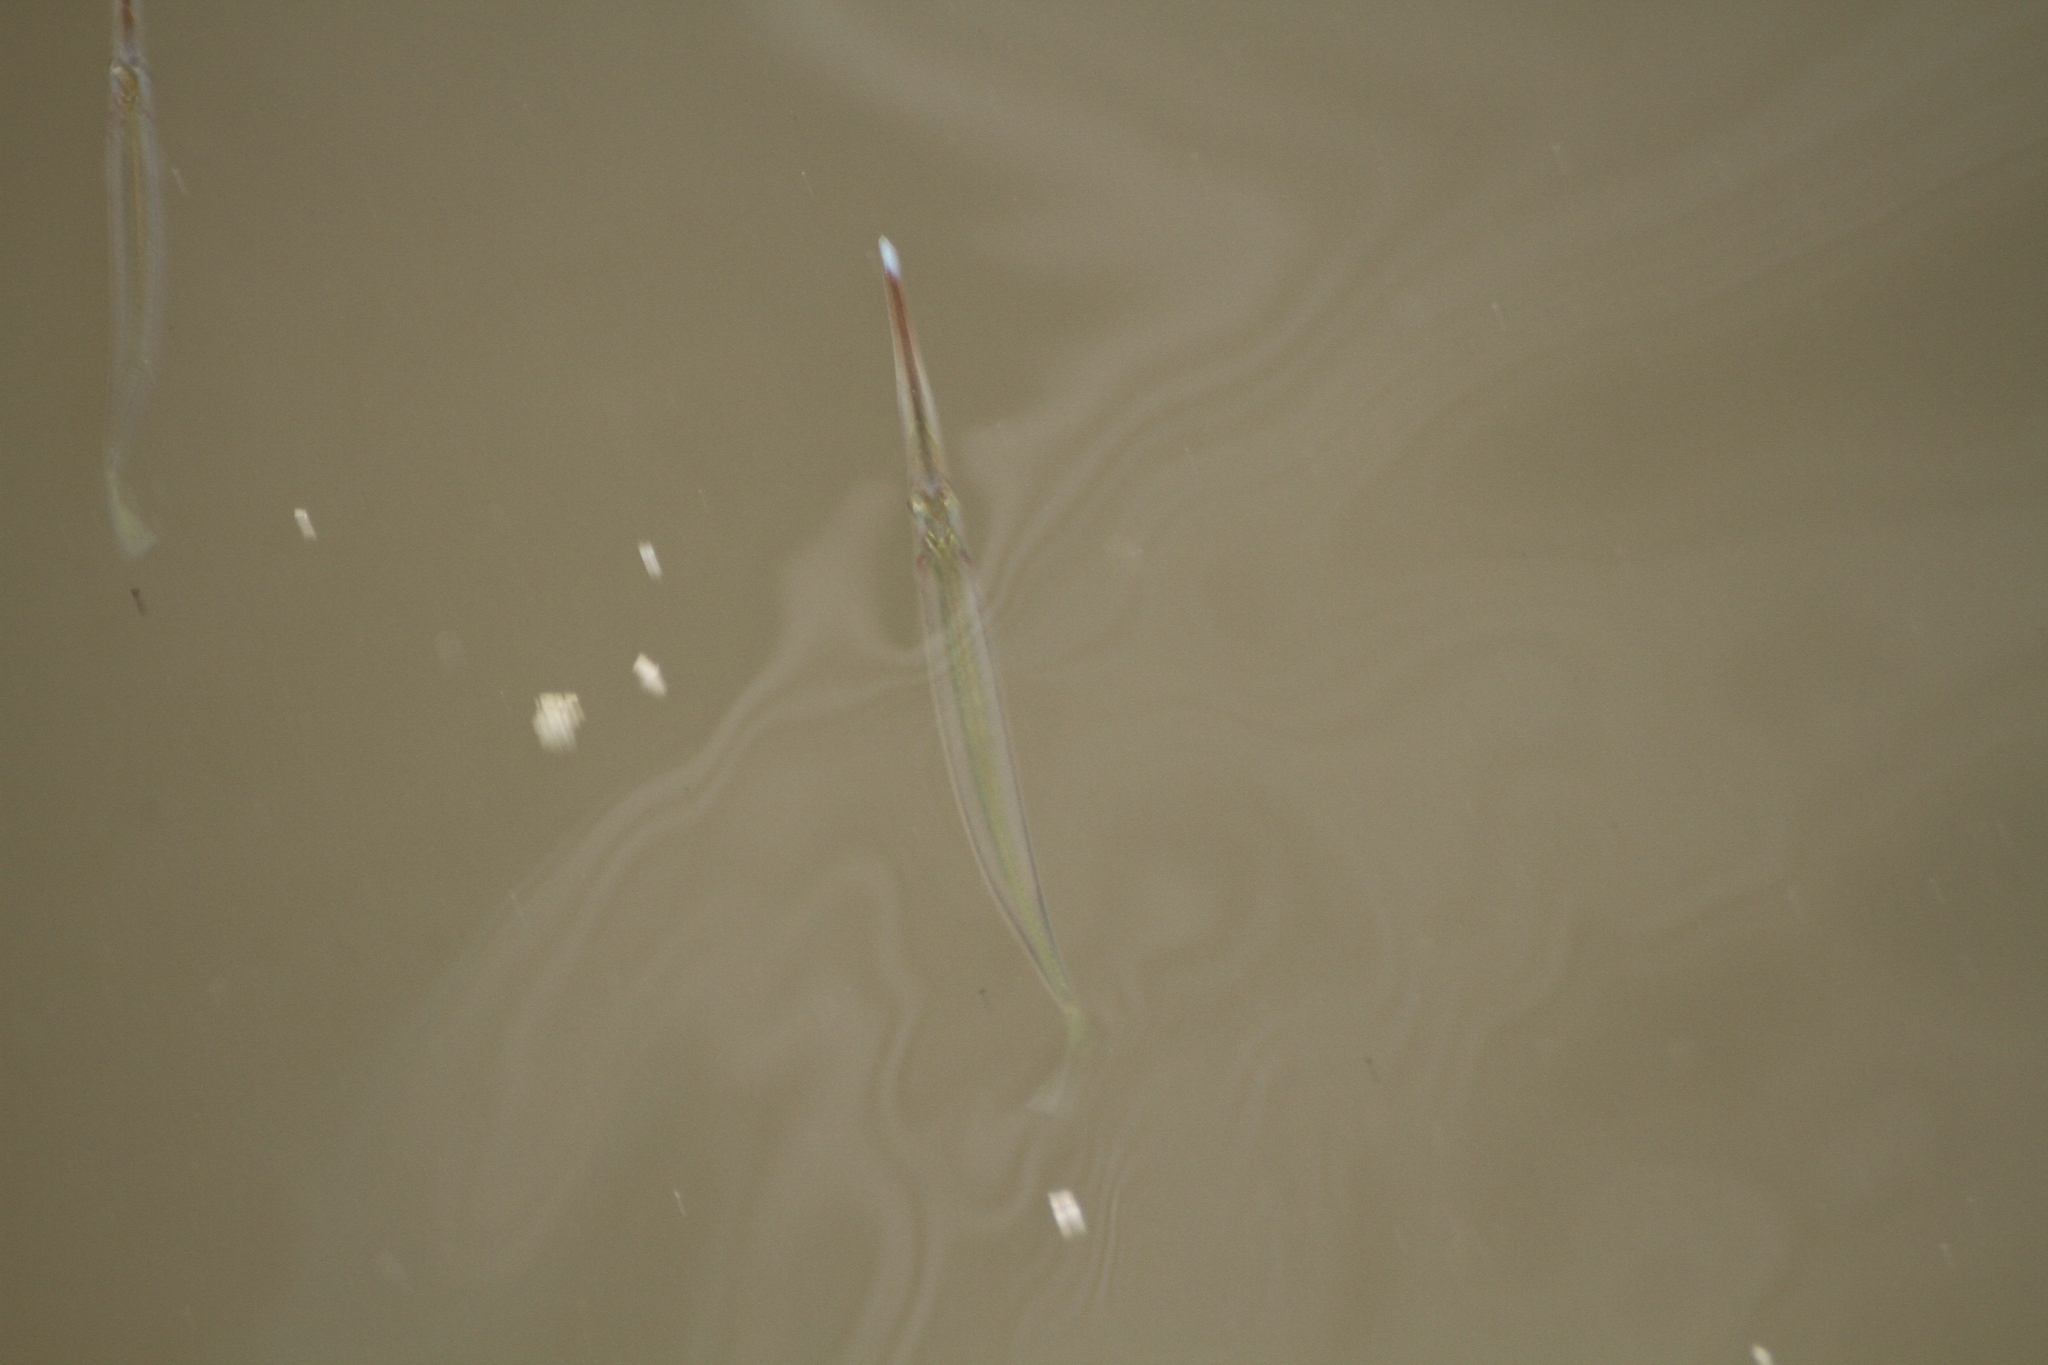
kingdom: Animalia
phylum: Chordata
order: Beloniformes
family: Zenarchopteridae
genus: Zenarchopterus
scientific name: Zenarchopterus buffonis
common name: Buffon's river-garfish
